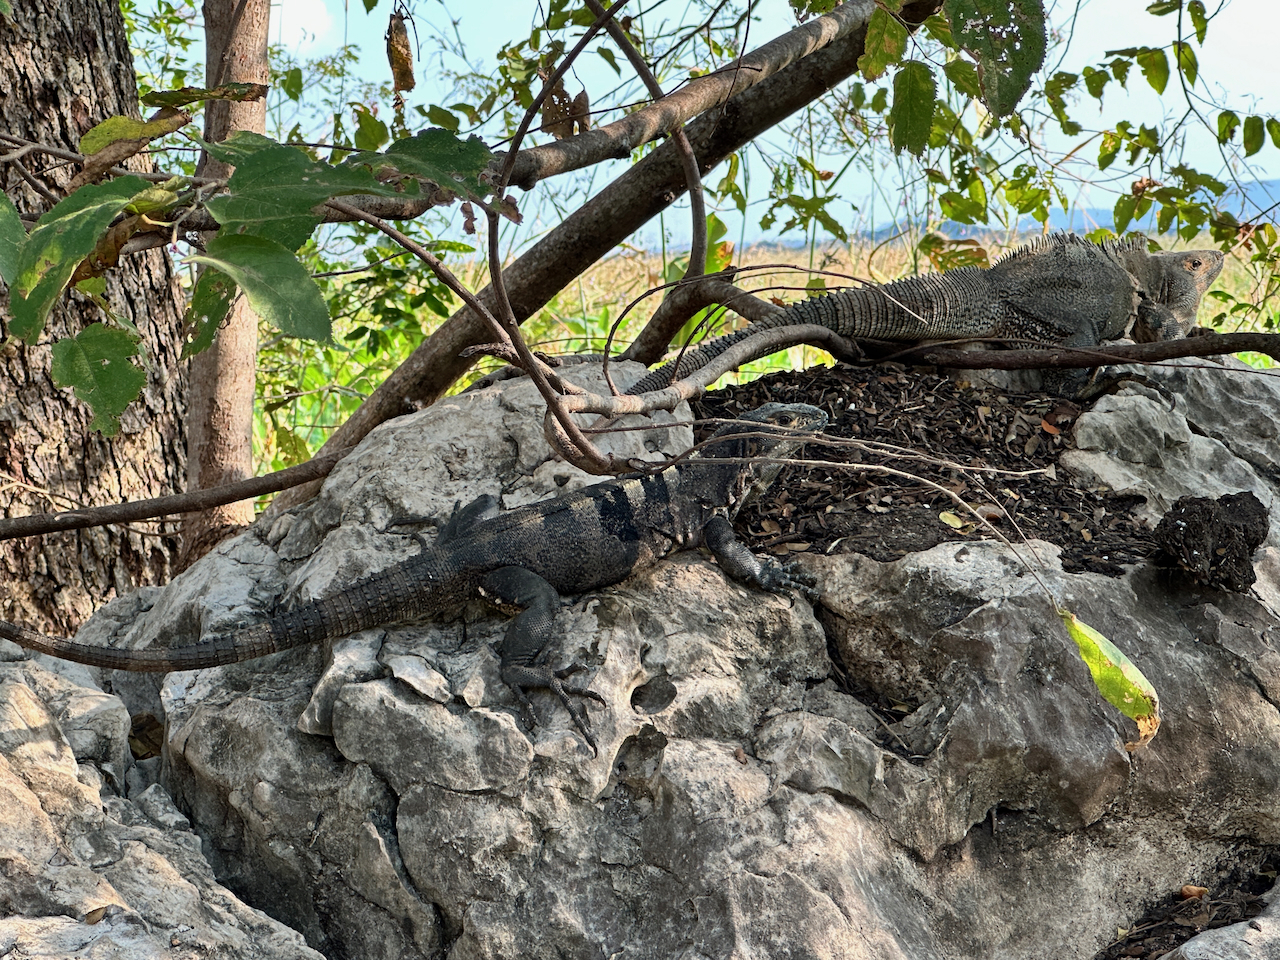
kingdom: Animalia
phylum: Chordata
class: Squamata
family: Iguanidae
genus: Ctenosaura
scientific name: Ctenosaura similis
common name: Black spiny-tailed iguana
